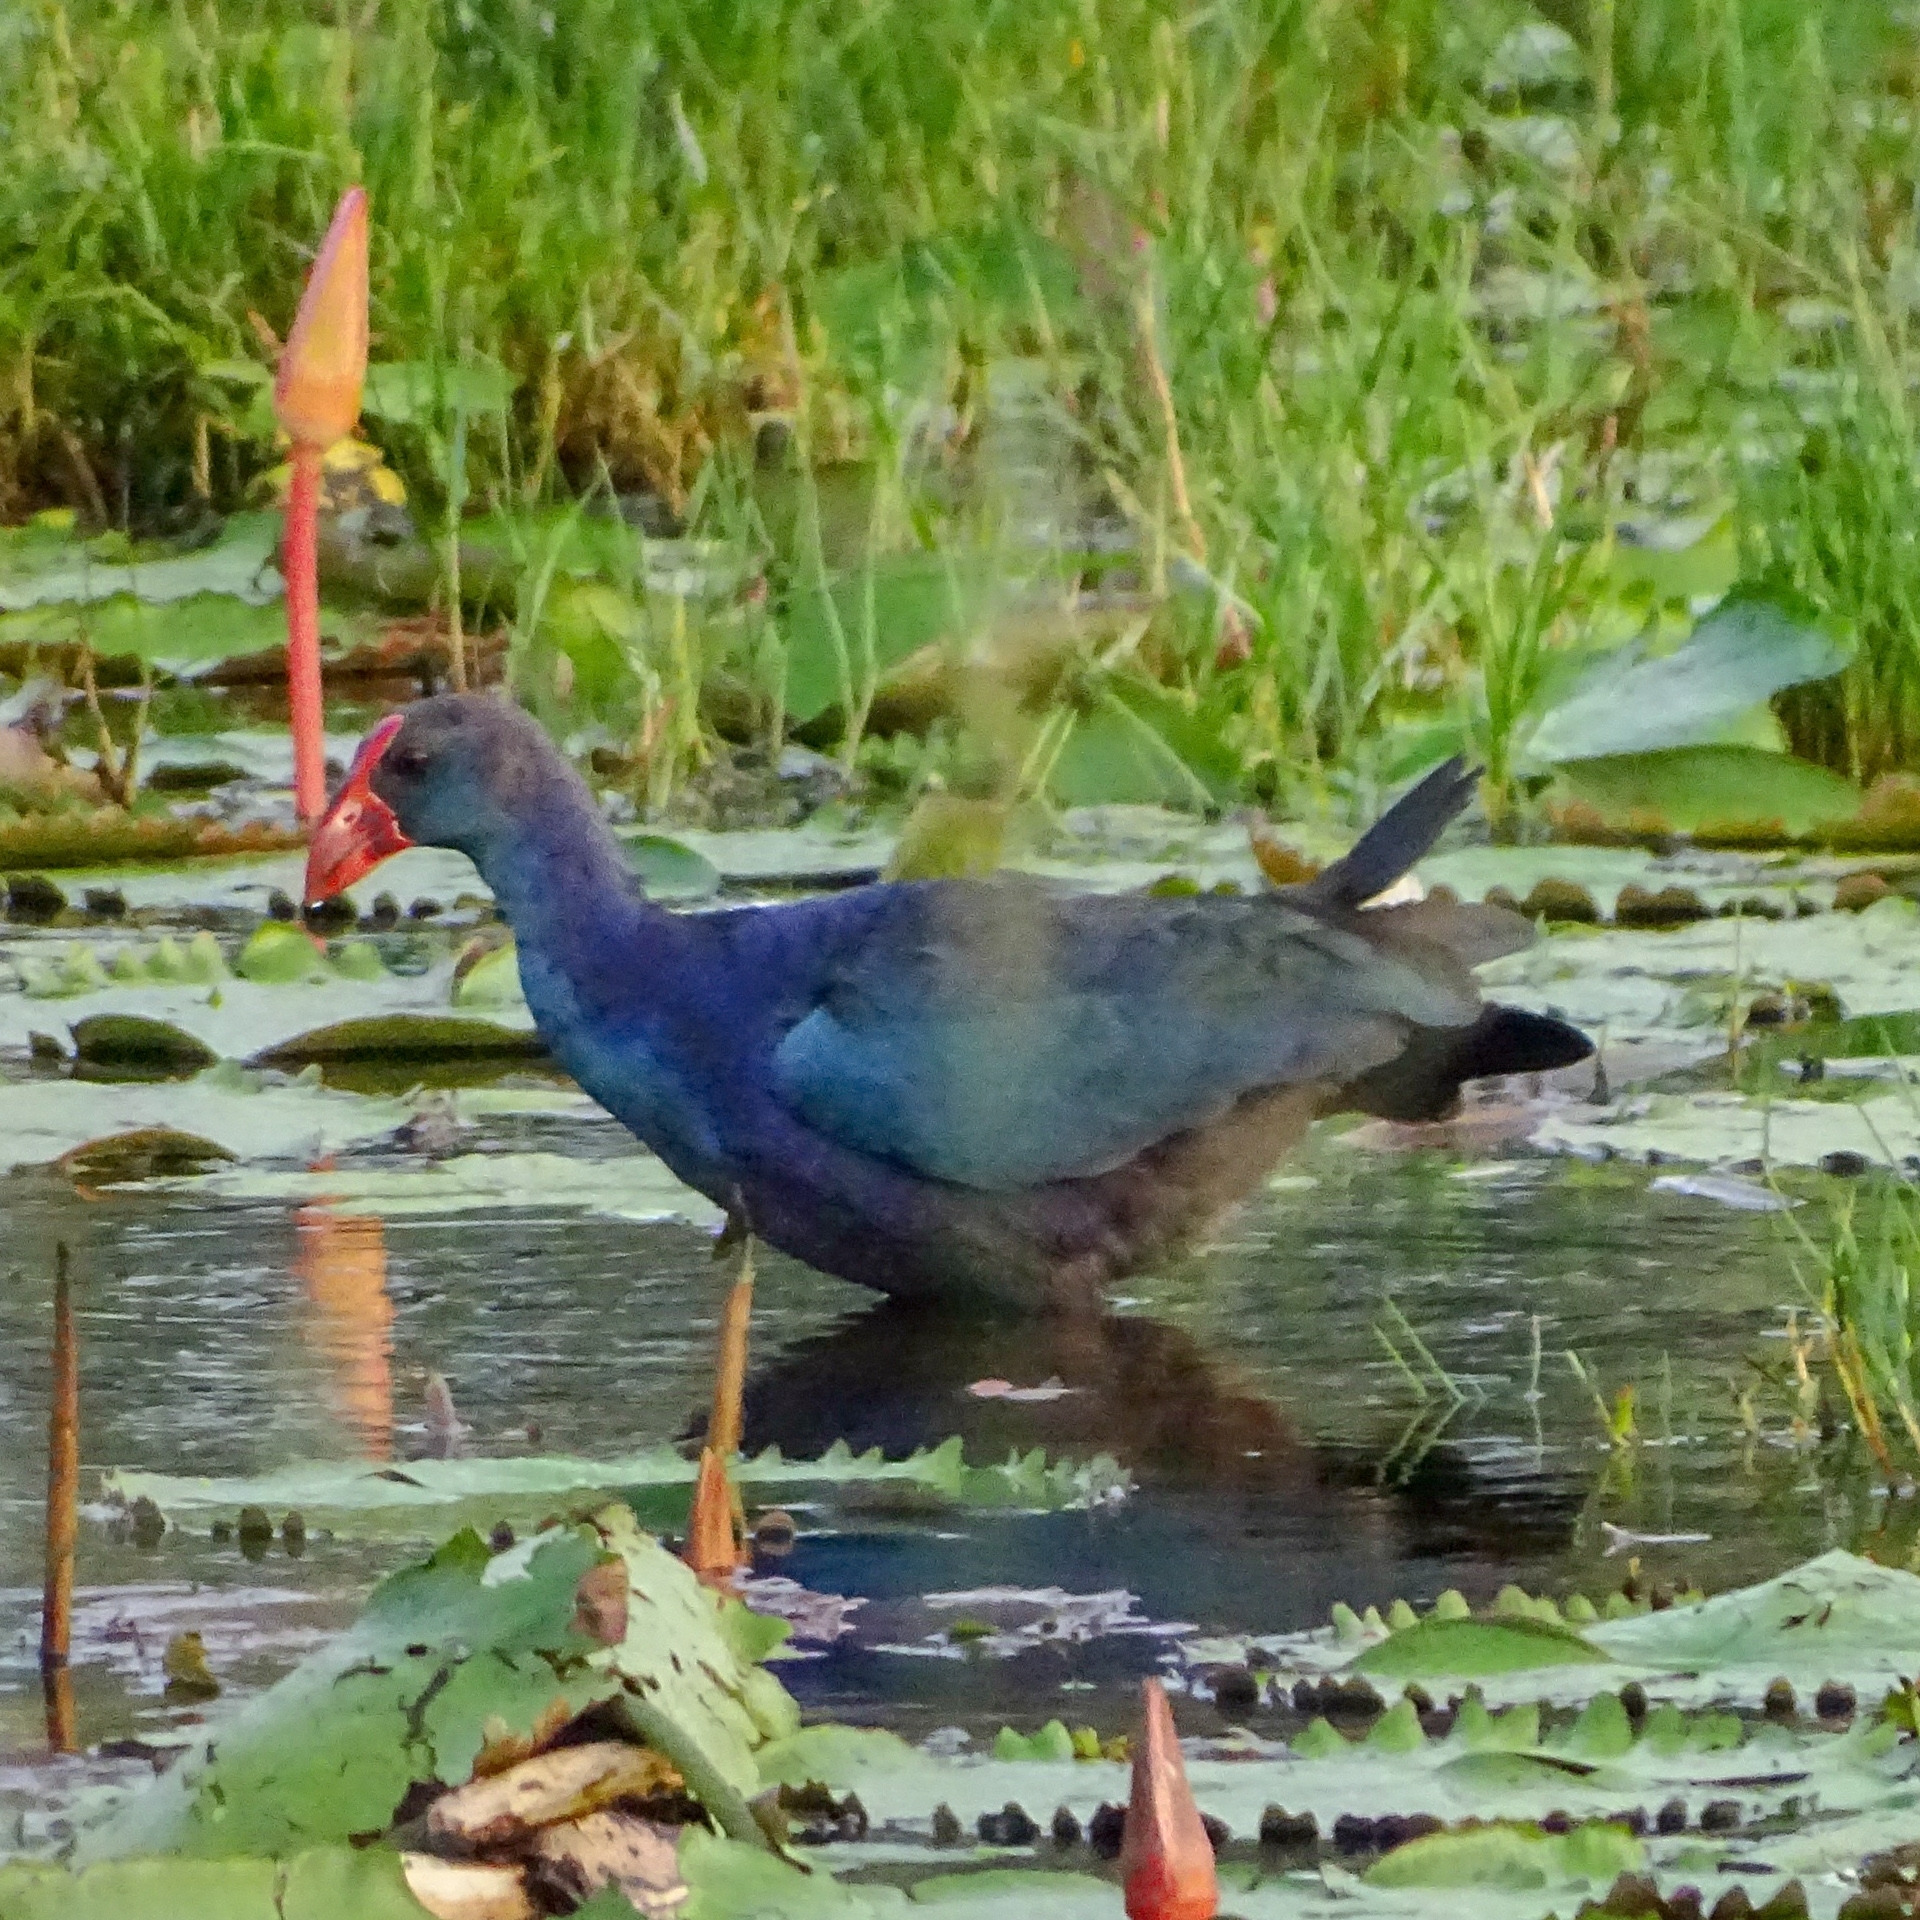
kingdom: Animalia
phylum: Chordata
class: Aves
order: Gruiformes
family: Rallidae
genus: Porphyrio
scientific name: Porphyrio porphyrio
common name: Purple swamphen
